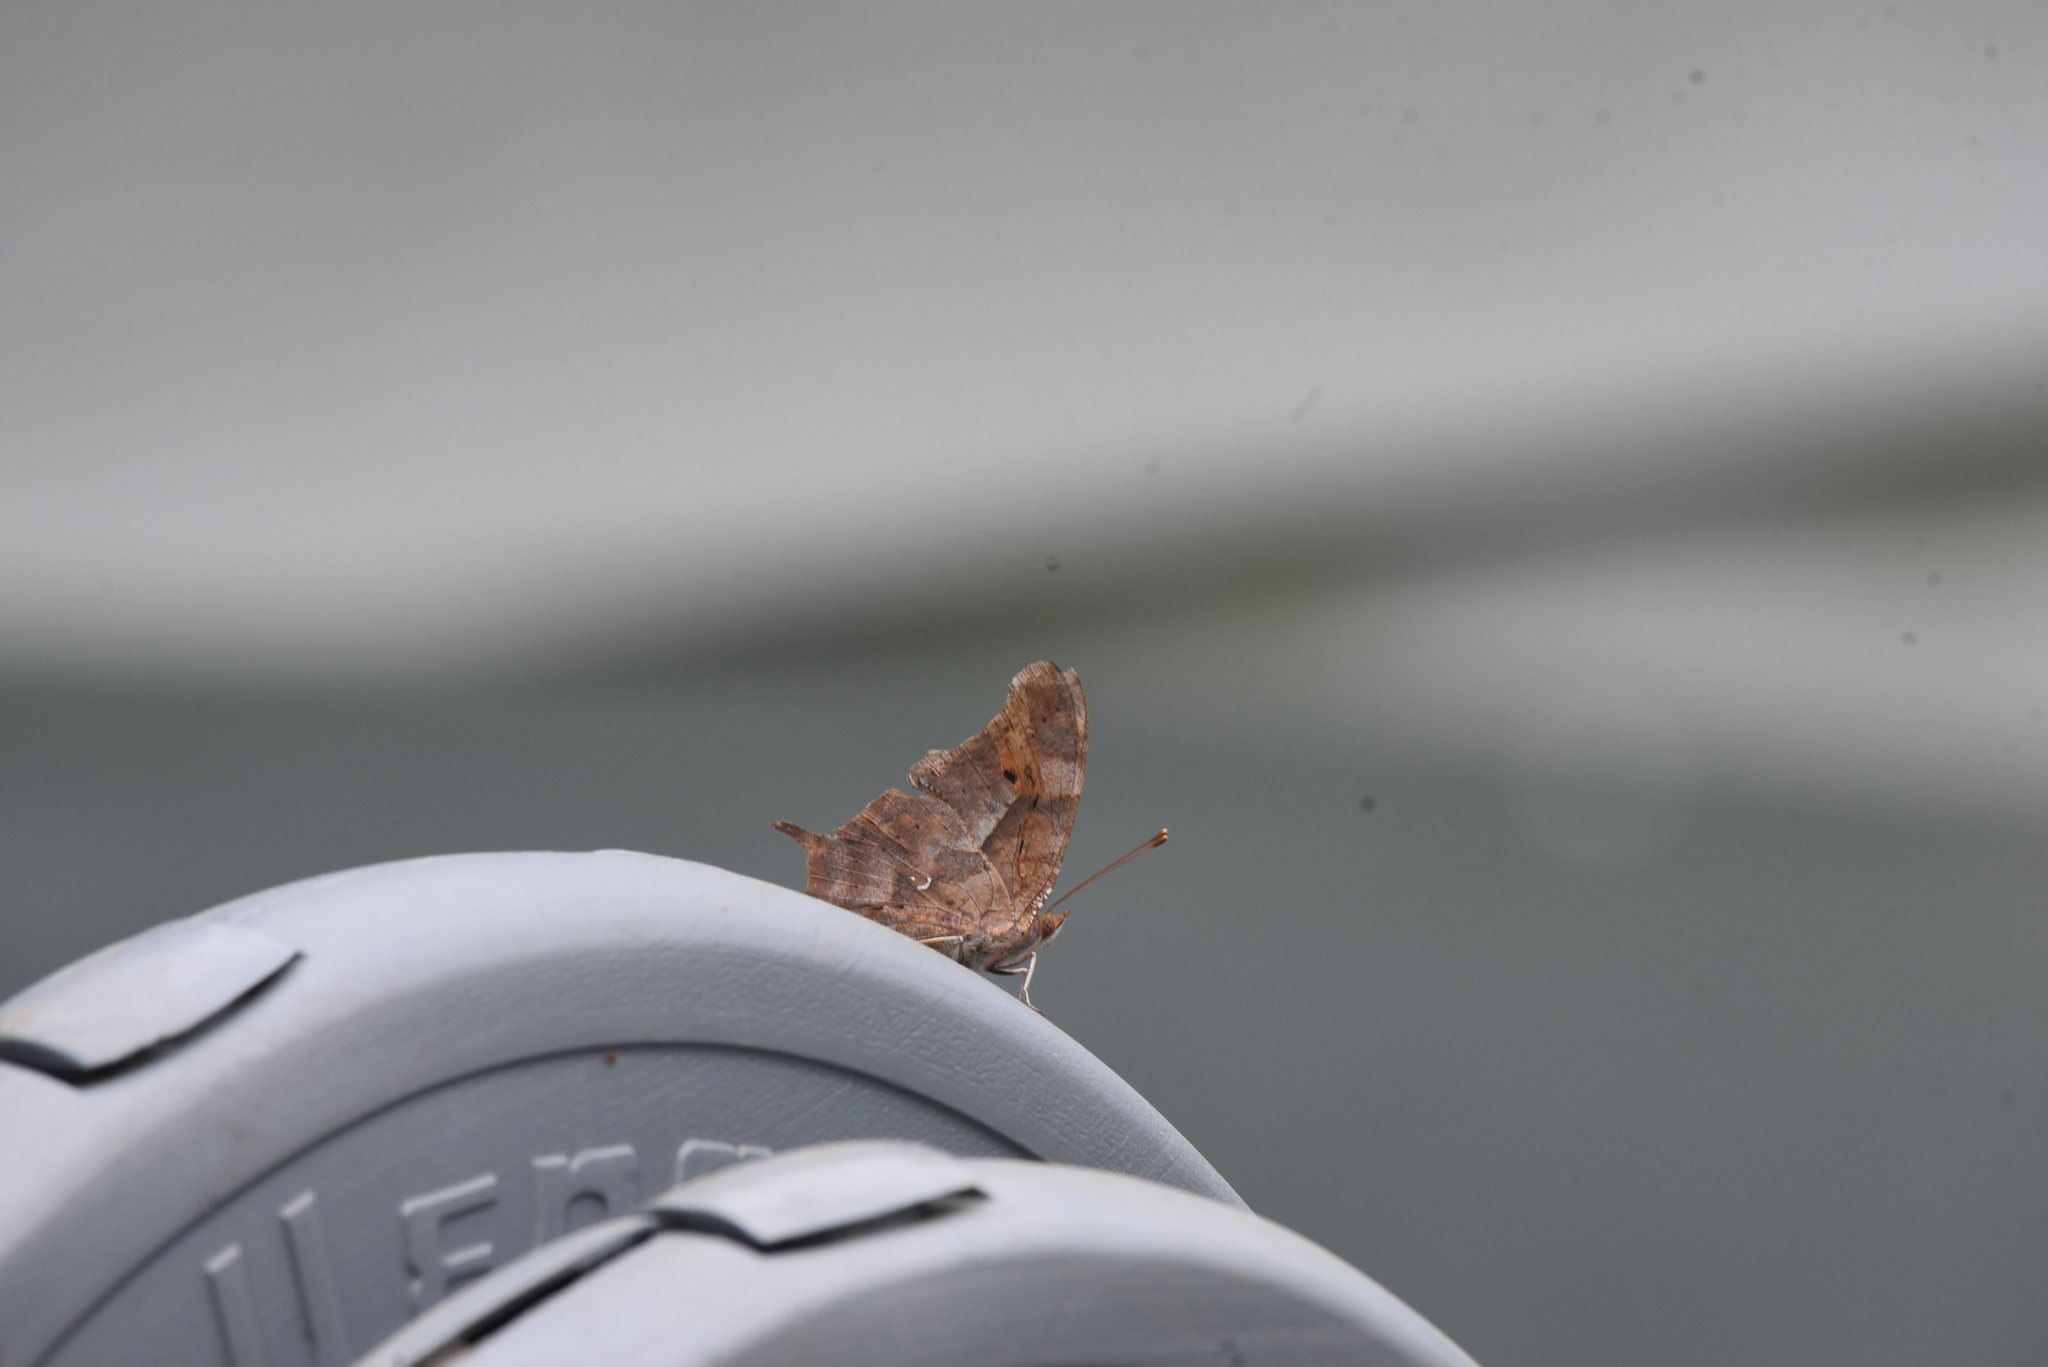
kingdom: Animalia
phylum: Arthropoda
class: Insecta
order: Lepidoptera
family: Nymphalidae
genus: Polygonia
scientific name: Polygonia interrogationis
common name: Question mark
